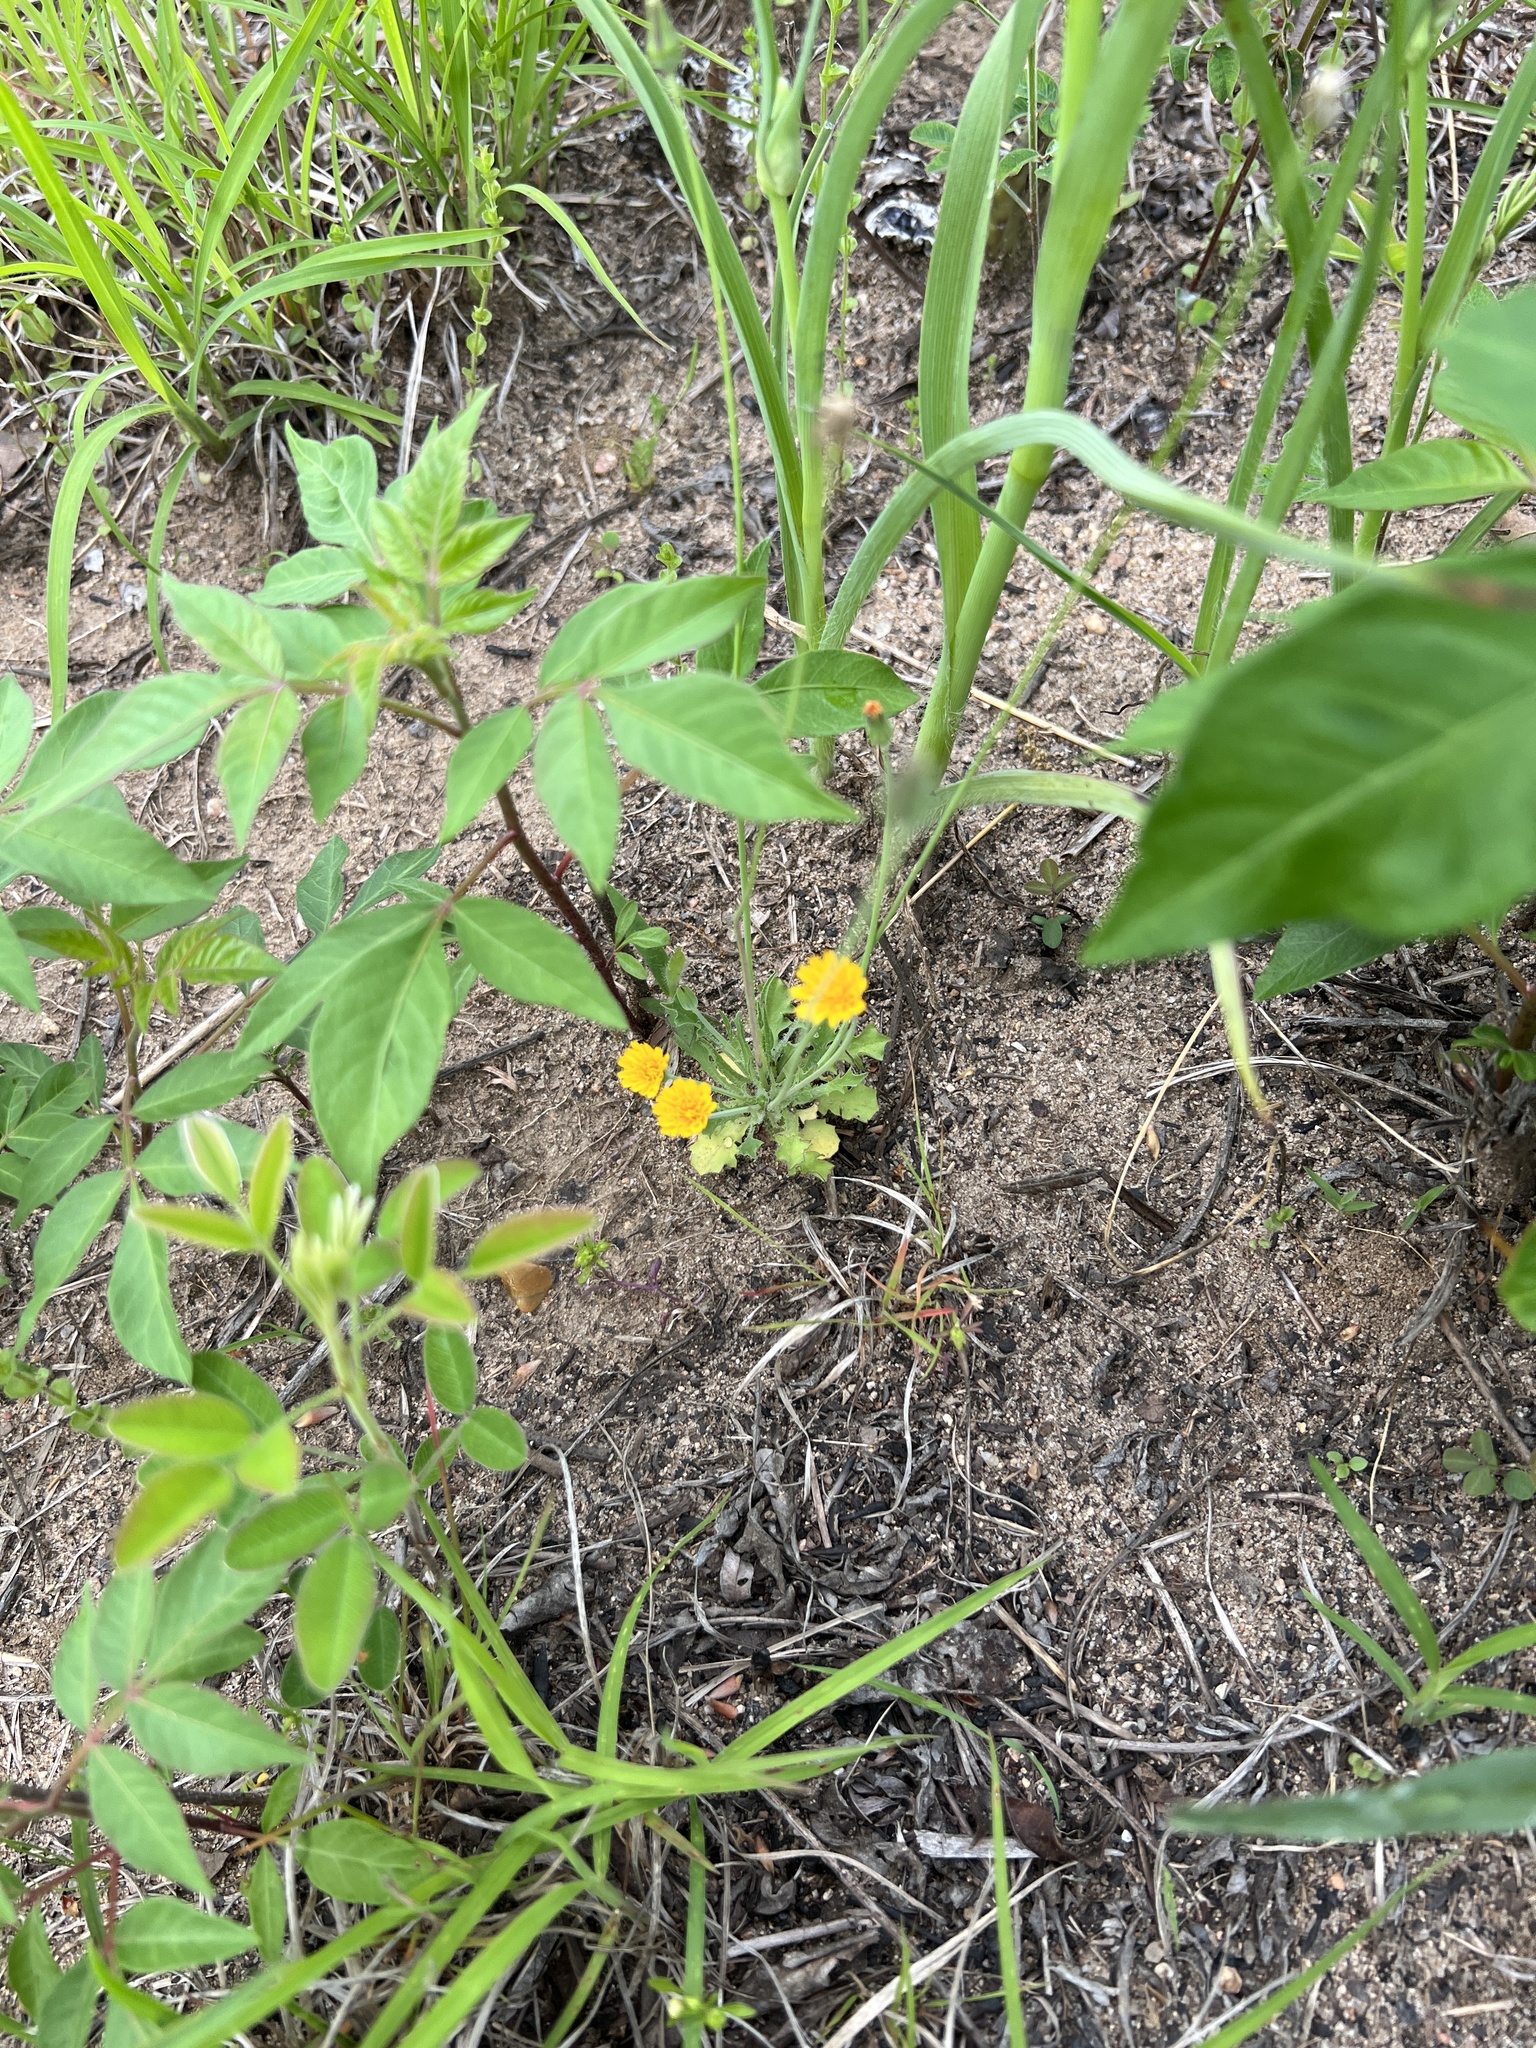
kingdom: Plantae
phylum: Tracheophyta
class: Magnoliopsida
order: Asterales
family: Asteraceae
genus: Krigia
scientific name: Krigia virginica
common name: Virginia dwarf-dandelion
